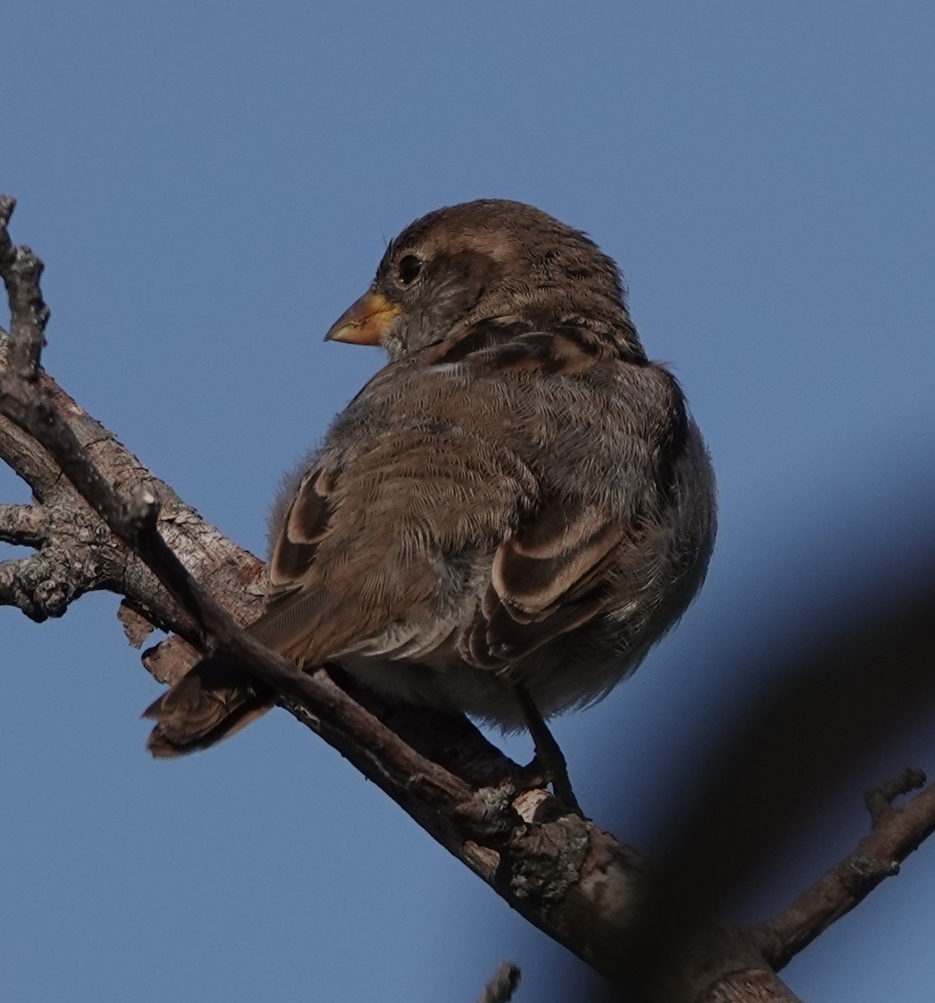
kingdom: Animalia
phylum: Chordata
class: Aves
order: Passeriformes
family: Passeridae
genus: Passer
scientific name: Passer domesticus
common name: House sparrow
